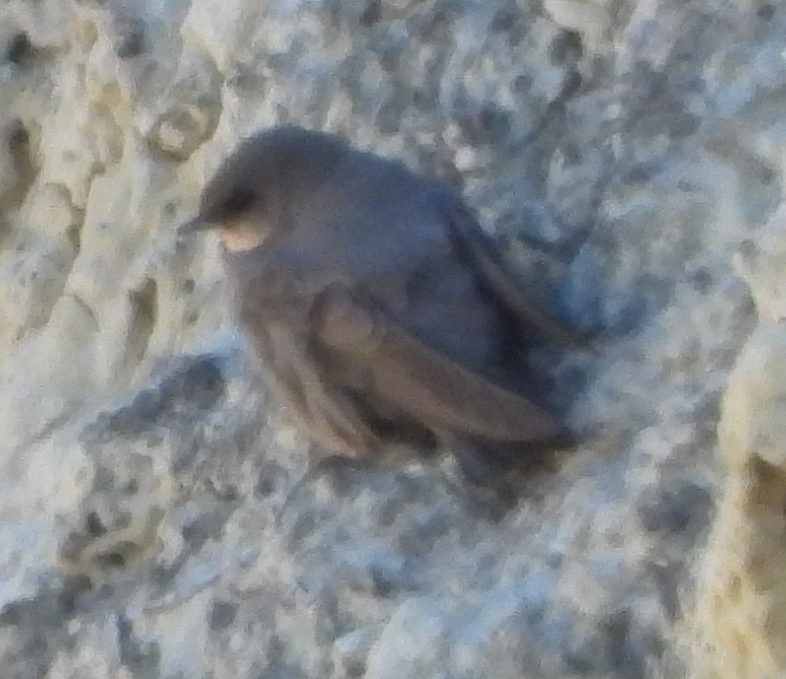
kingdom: Animalia
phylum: Chordata
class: Aves
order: Passeriformes
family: Hirundinidae
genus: Ptyonoprogne
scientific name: Ptyonoprogne fuligula
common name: Rock martin
